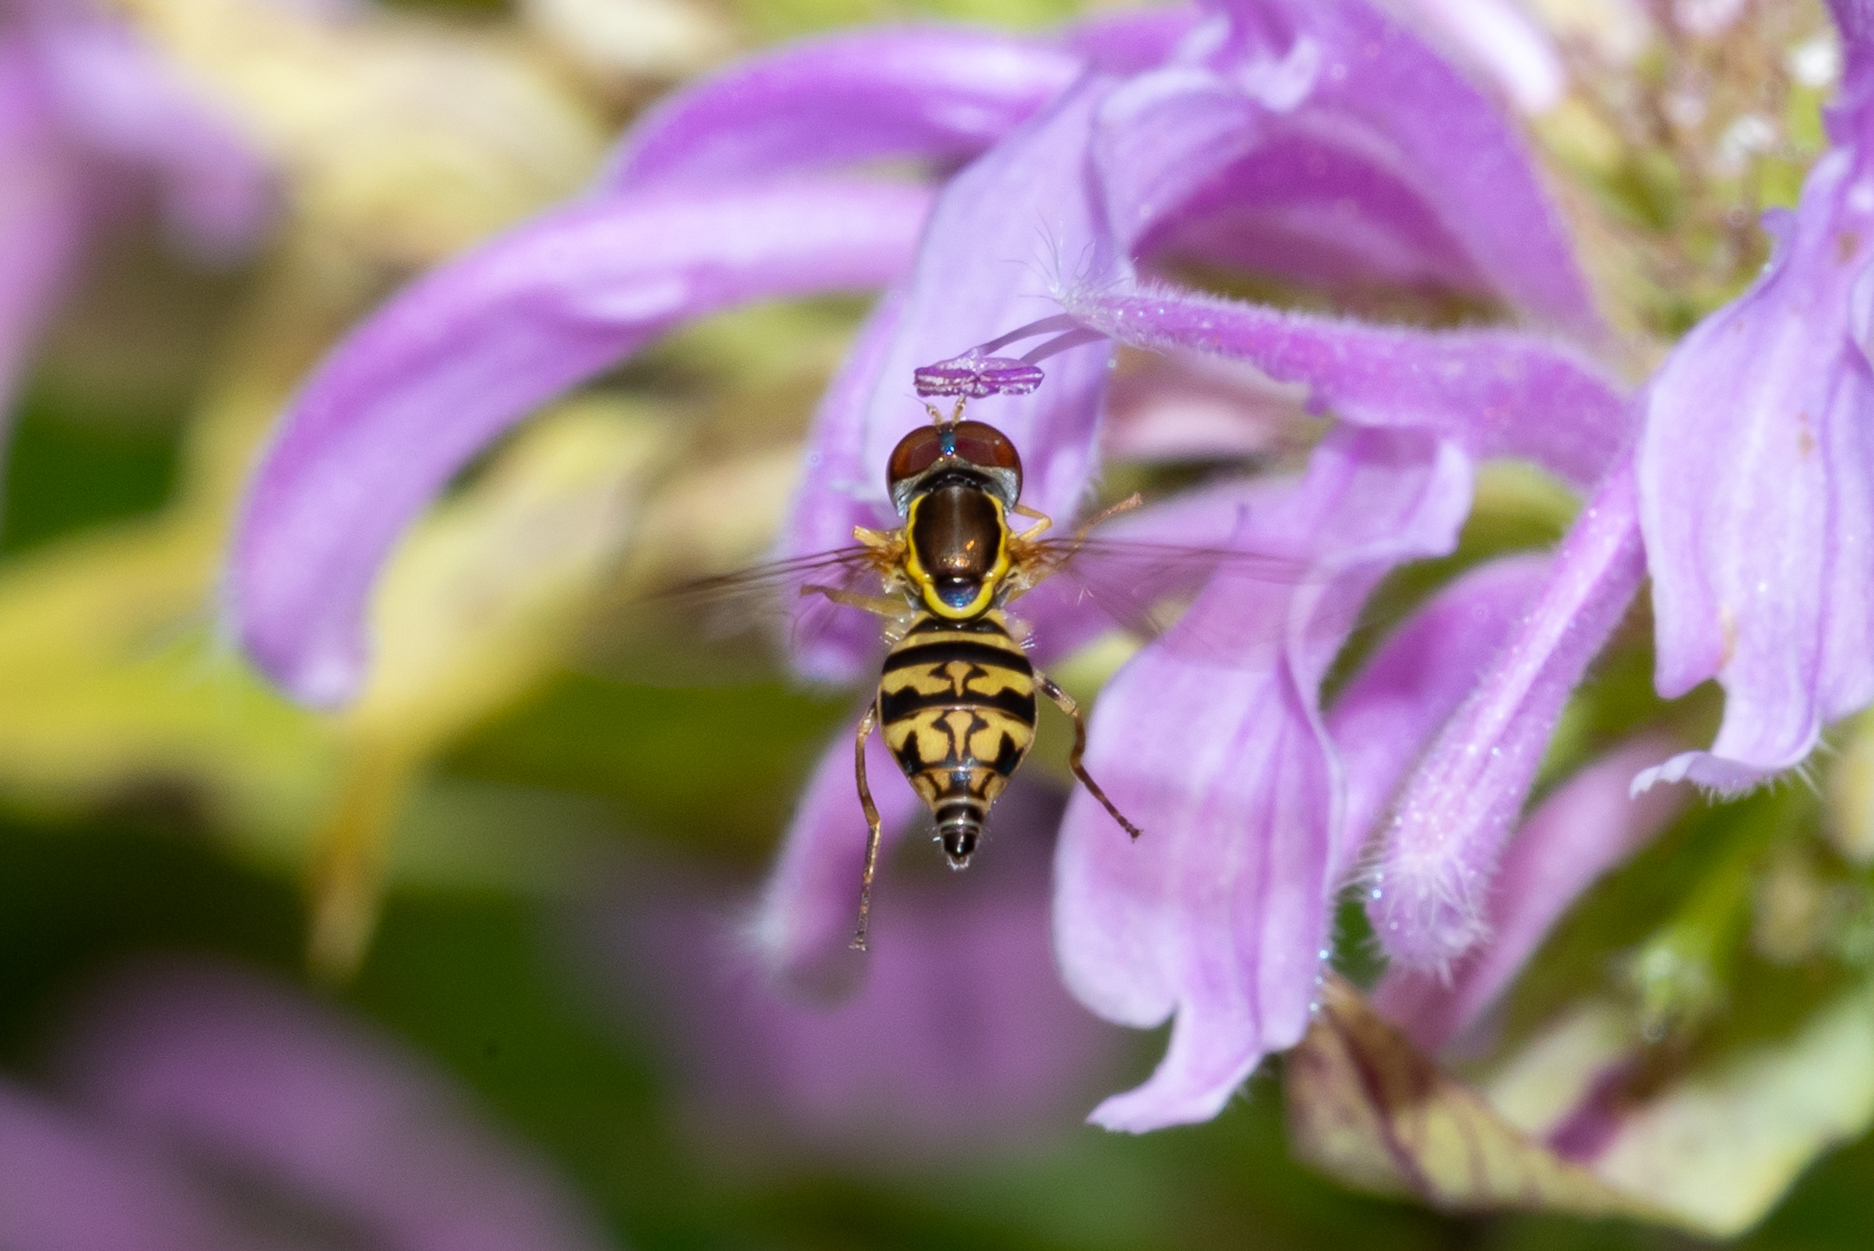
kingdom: Animalia
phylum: Arthropoda
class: Insecta
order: Diptera
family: Syrphidae
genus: Toxomerus
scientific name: Toxomerus geminatus
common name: Eastern calligrapher
